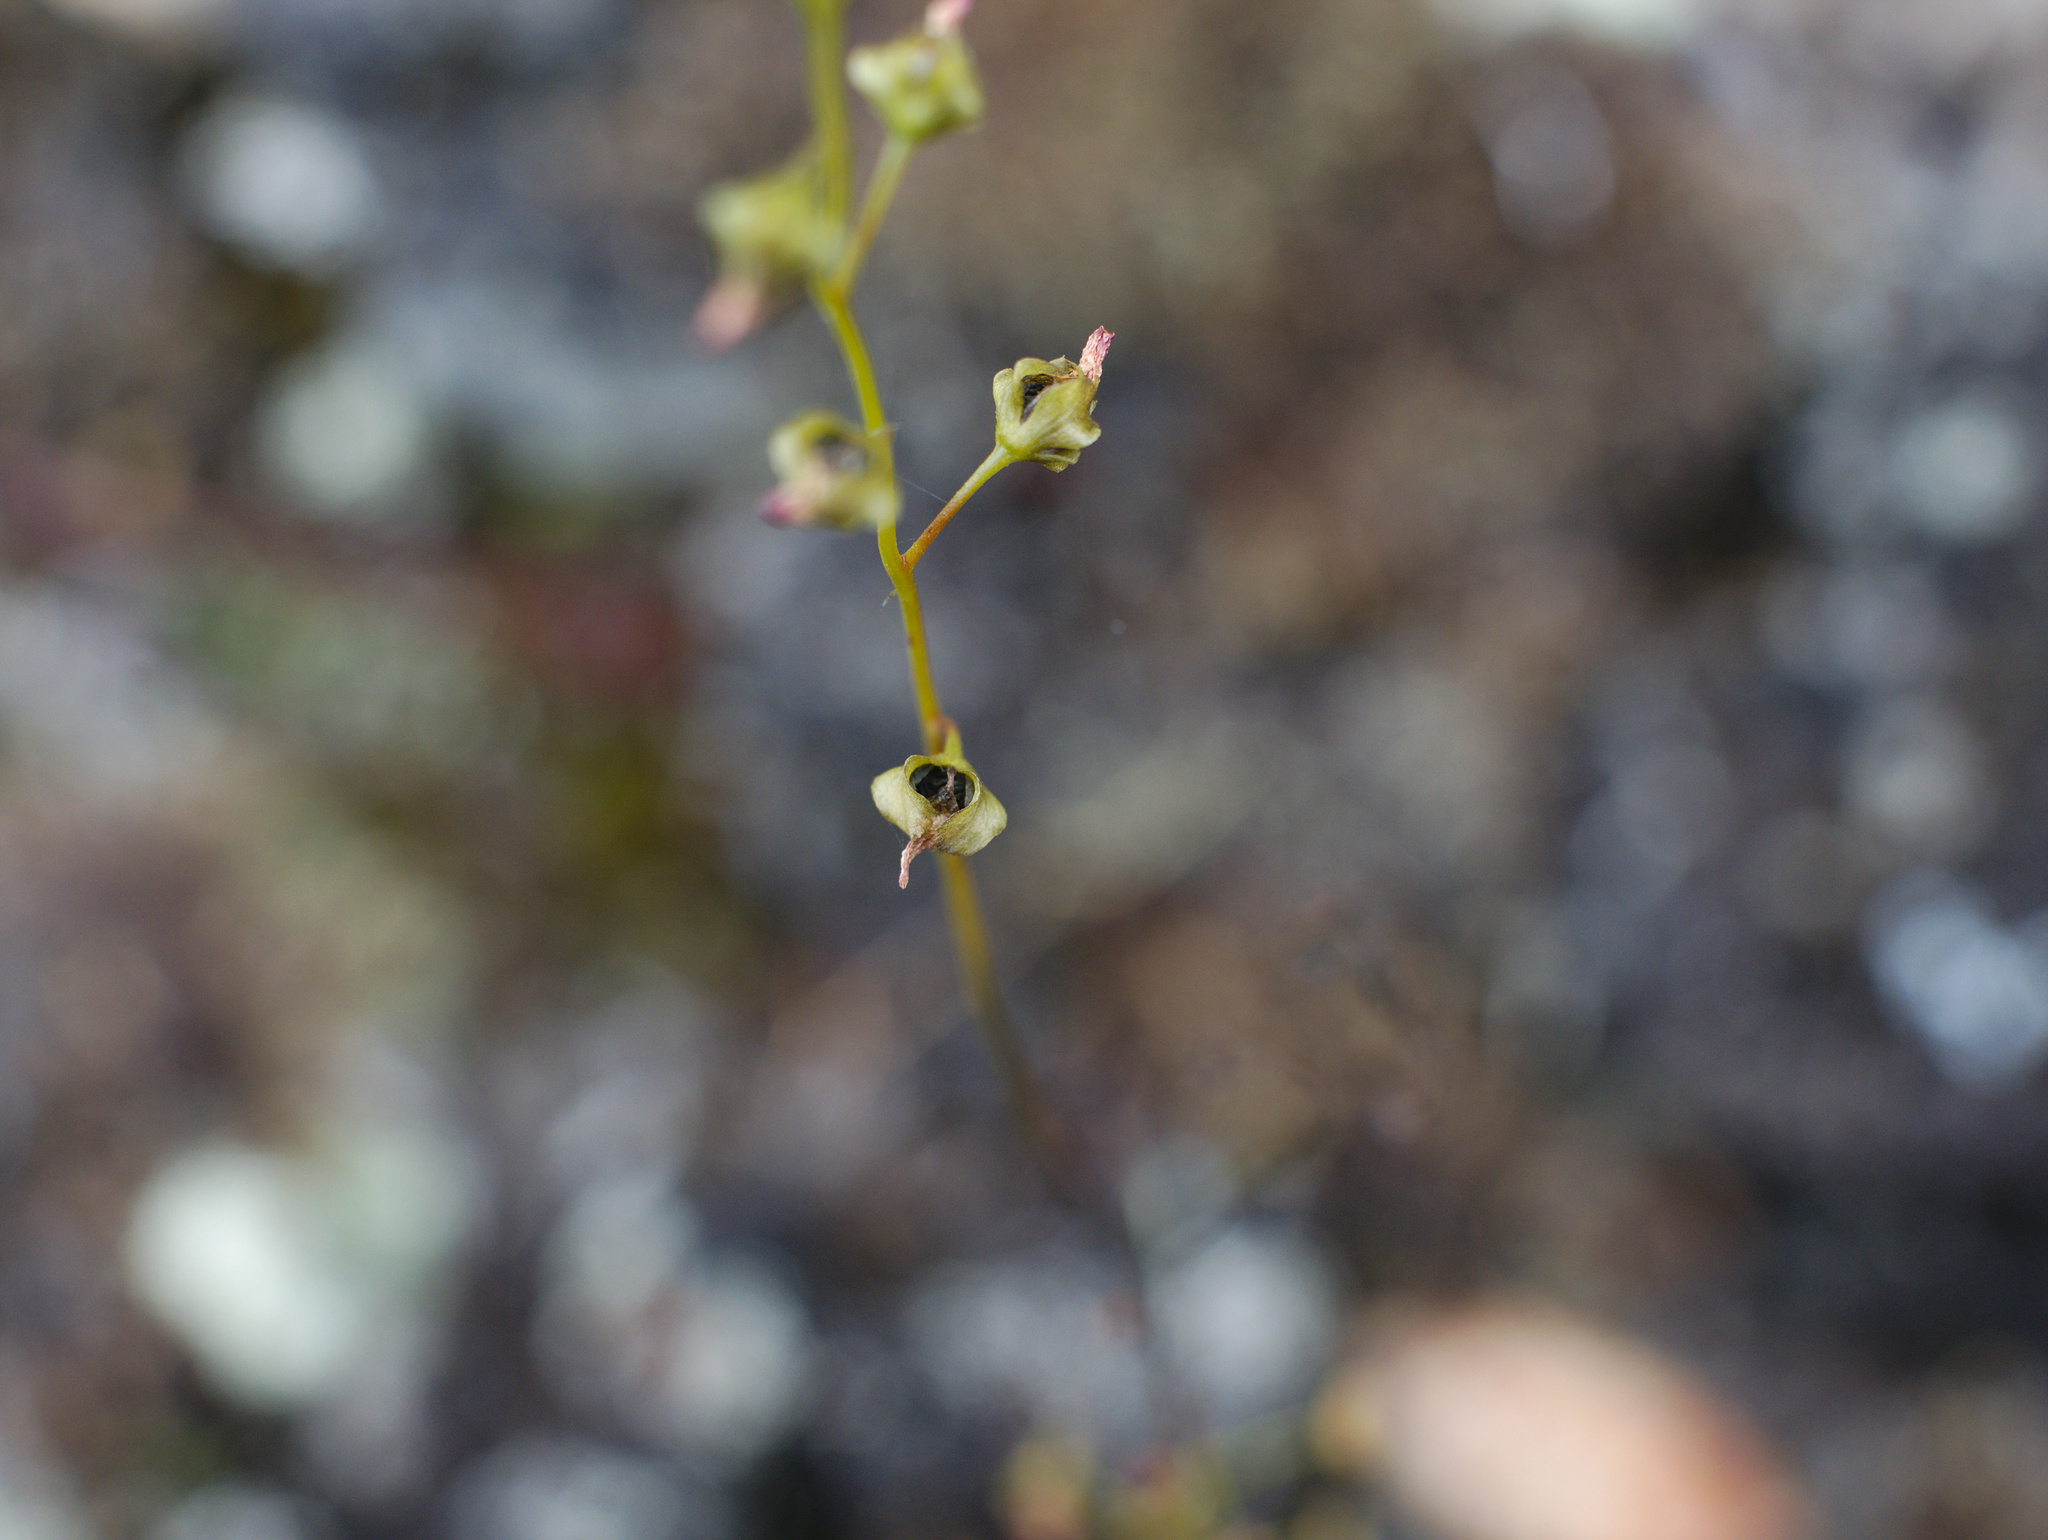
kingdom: Plantae
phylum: Tracheophyta
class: Magnoliopsida
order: Caryophyllales
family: Droseraceae
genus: Drosera
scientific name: Drosera peltata
